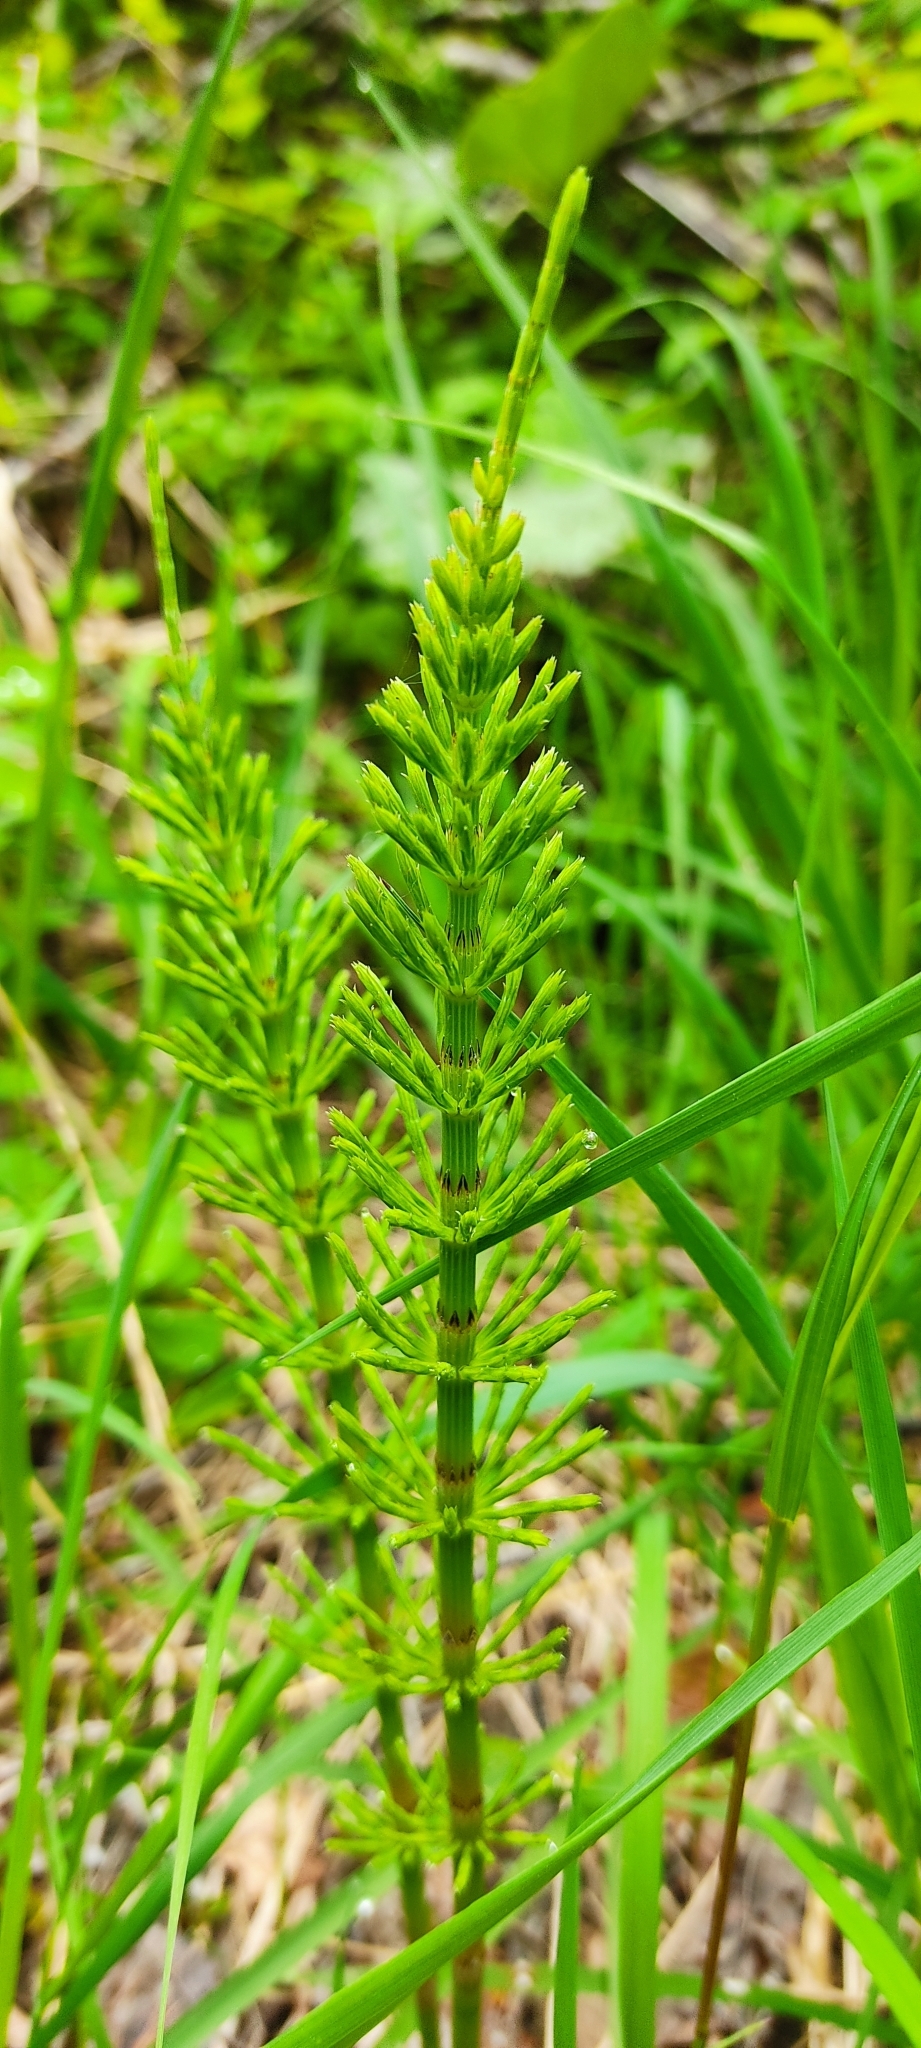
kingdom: Plantae
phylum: Tracheophyta
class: Polypodiopsida
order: Equisetales
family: Equisetaceae
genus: Equisetum
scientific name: Equisetum arvense
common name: Field horsetail
